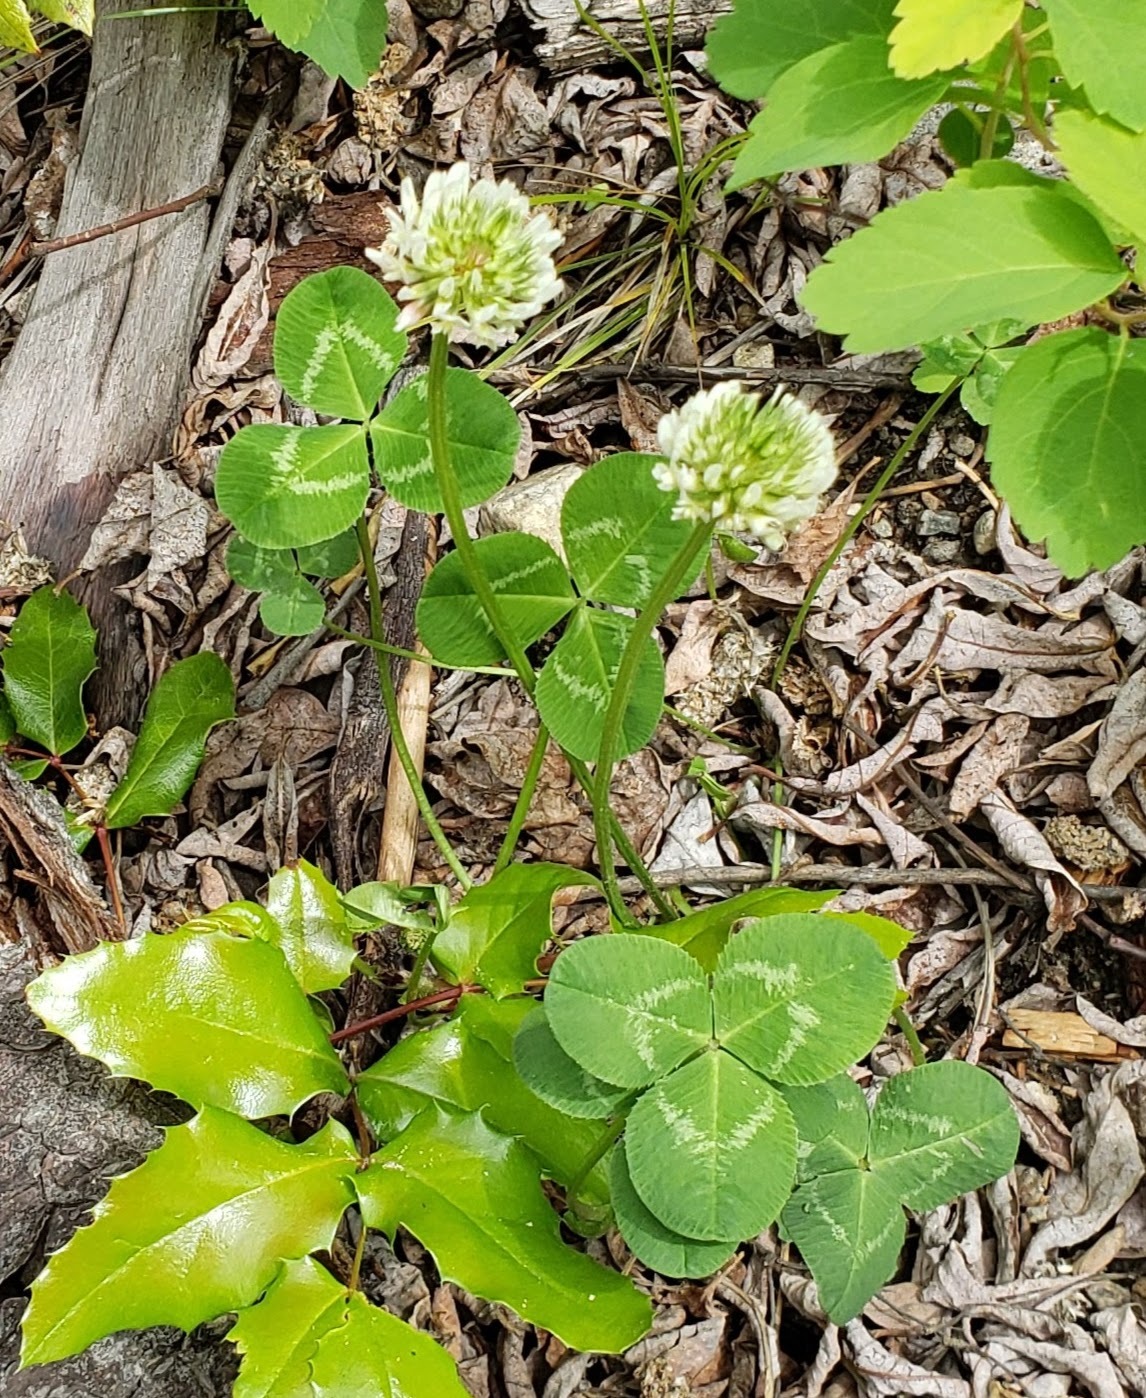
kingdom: Plantae
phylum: Tracheophyta
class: Magnoliopsida
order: Fabales
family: Fabaceae
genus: Trifolium
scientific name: Trifolium repens
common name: White clover
